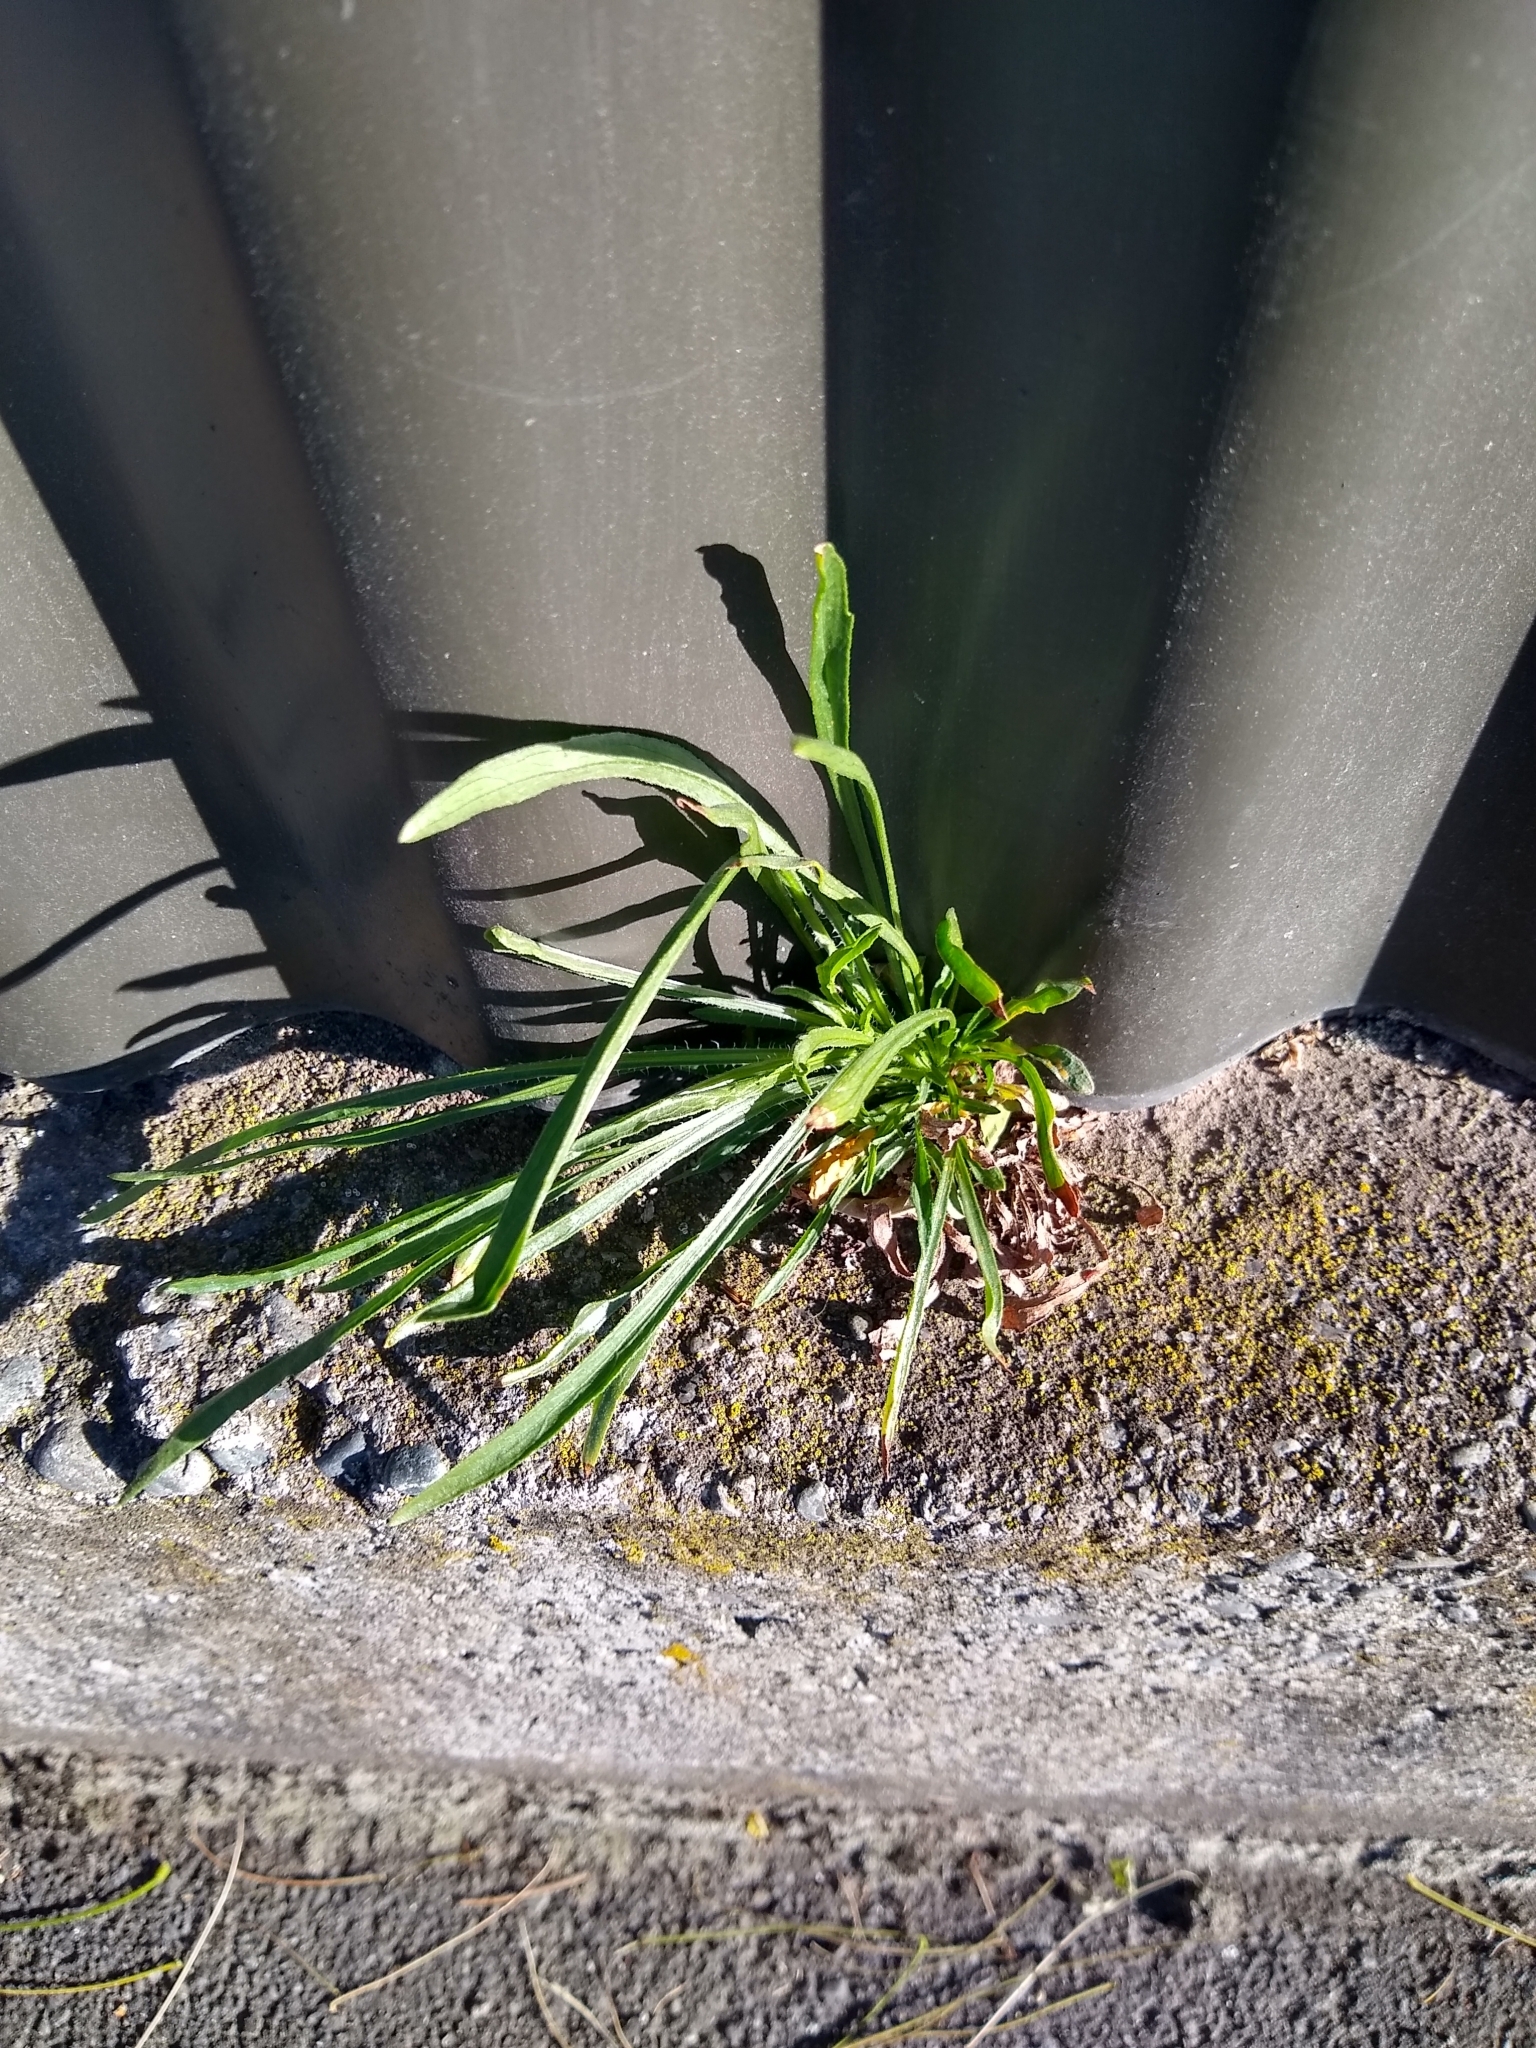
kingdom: Plantae
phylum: Tracheophyta
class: Magnoliopsida
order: Lamiales
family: Plantaginaceae
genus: Plantago
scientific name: Plantago lanceolata
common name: Ribwort plantain
